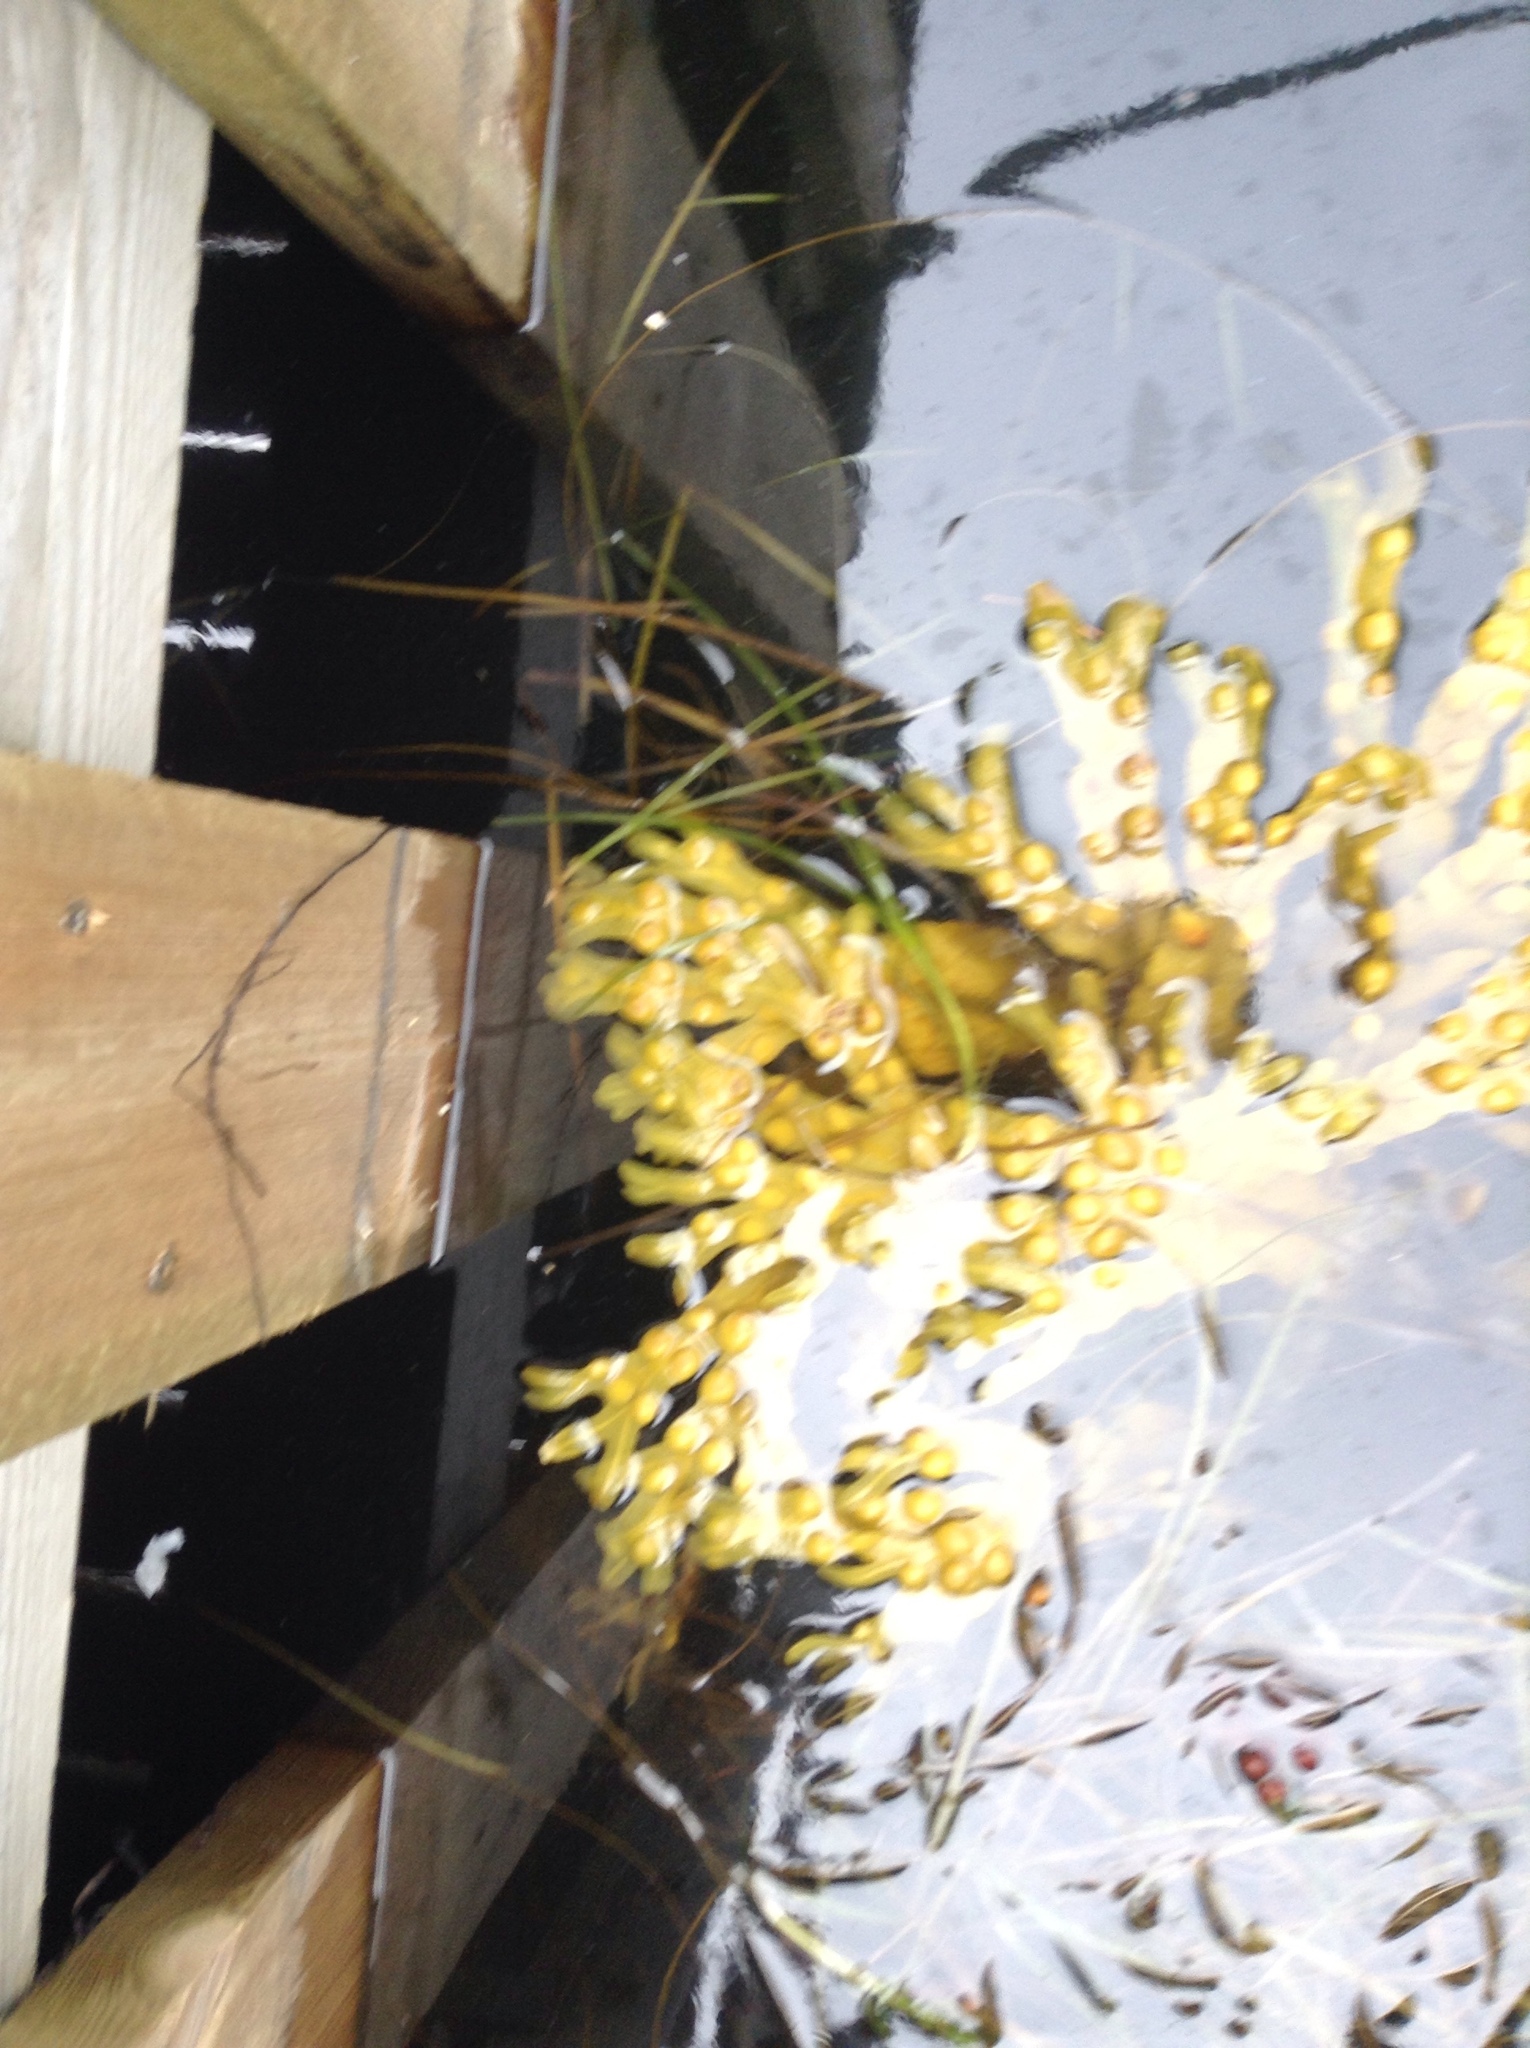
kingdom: Chromista
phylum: Ochrophyta
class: Phaeophyceae
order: Fucales
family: Fucaceae
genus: Fucus
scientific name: Fucus vesiculosus
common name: Bladder wrack
